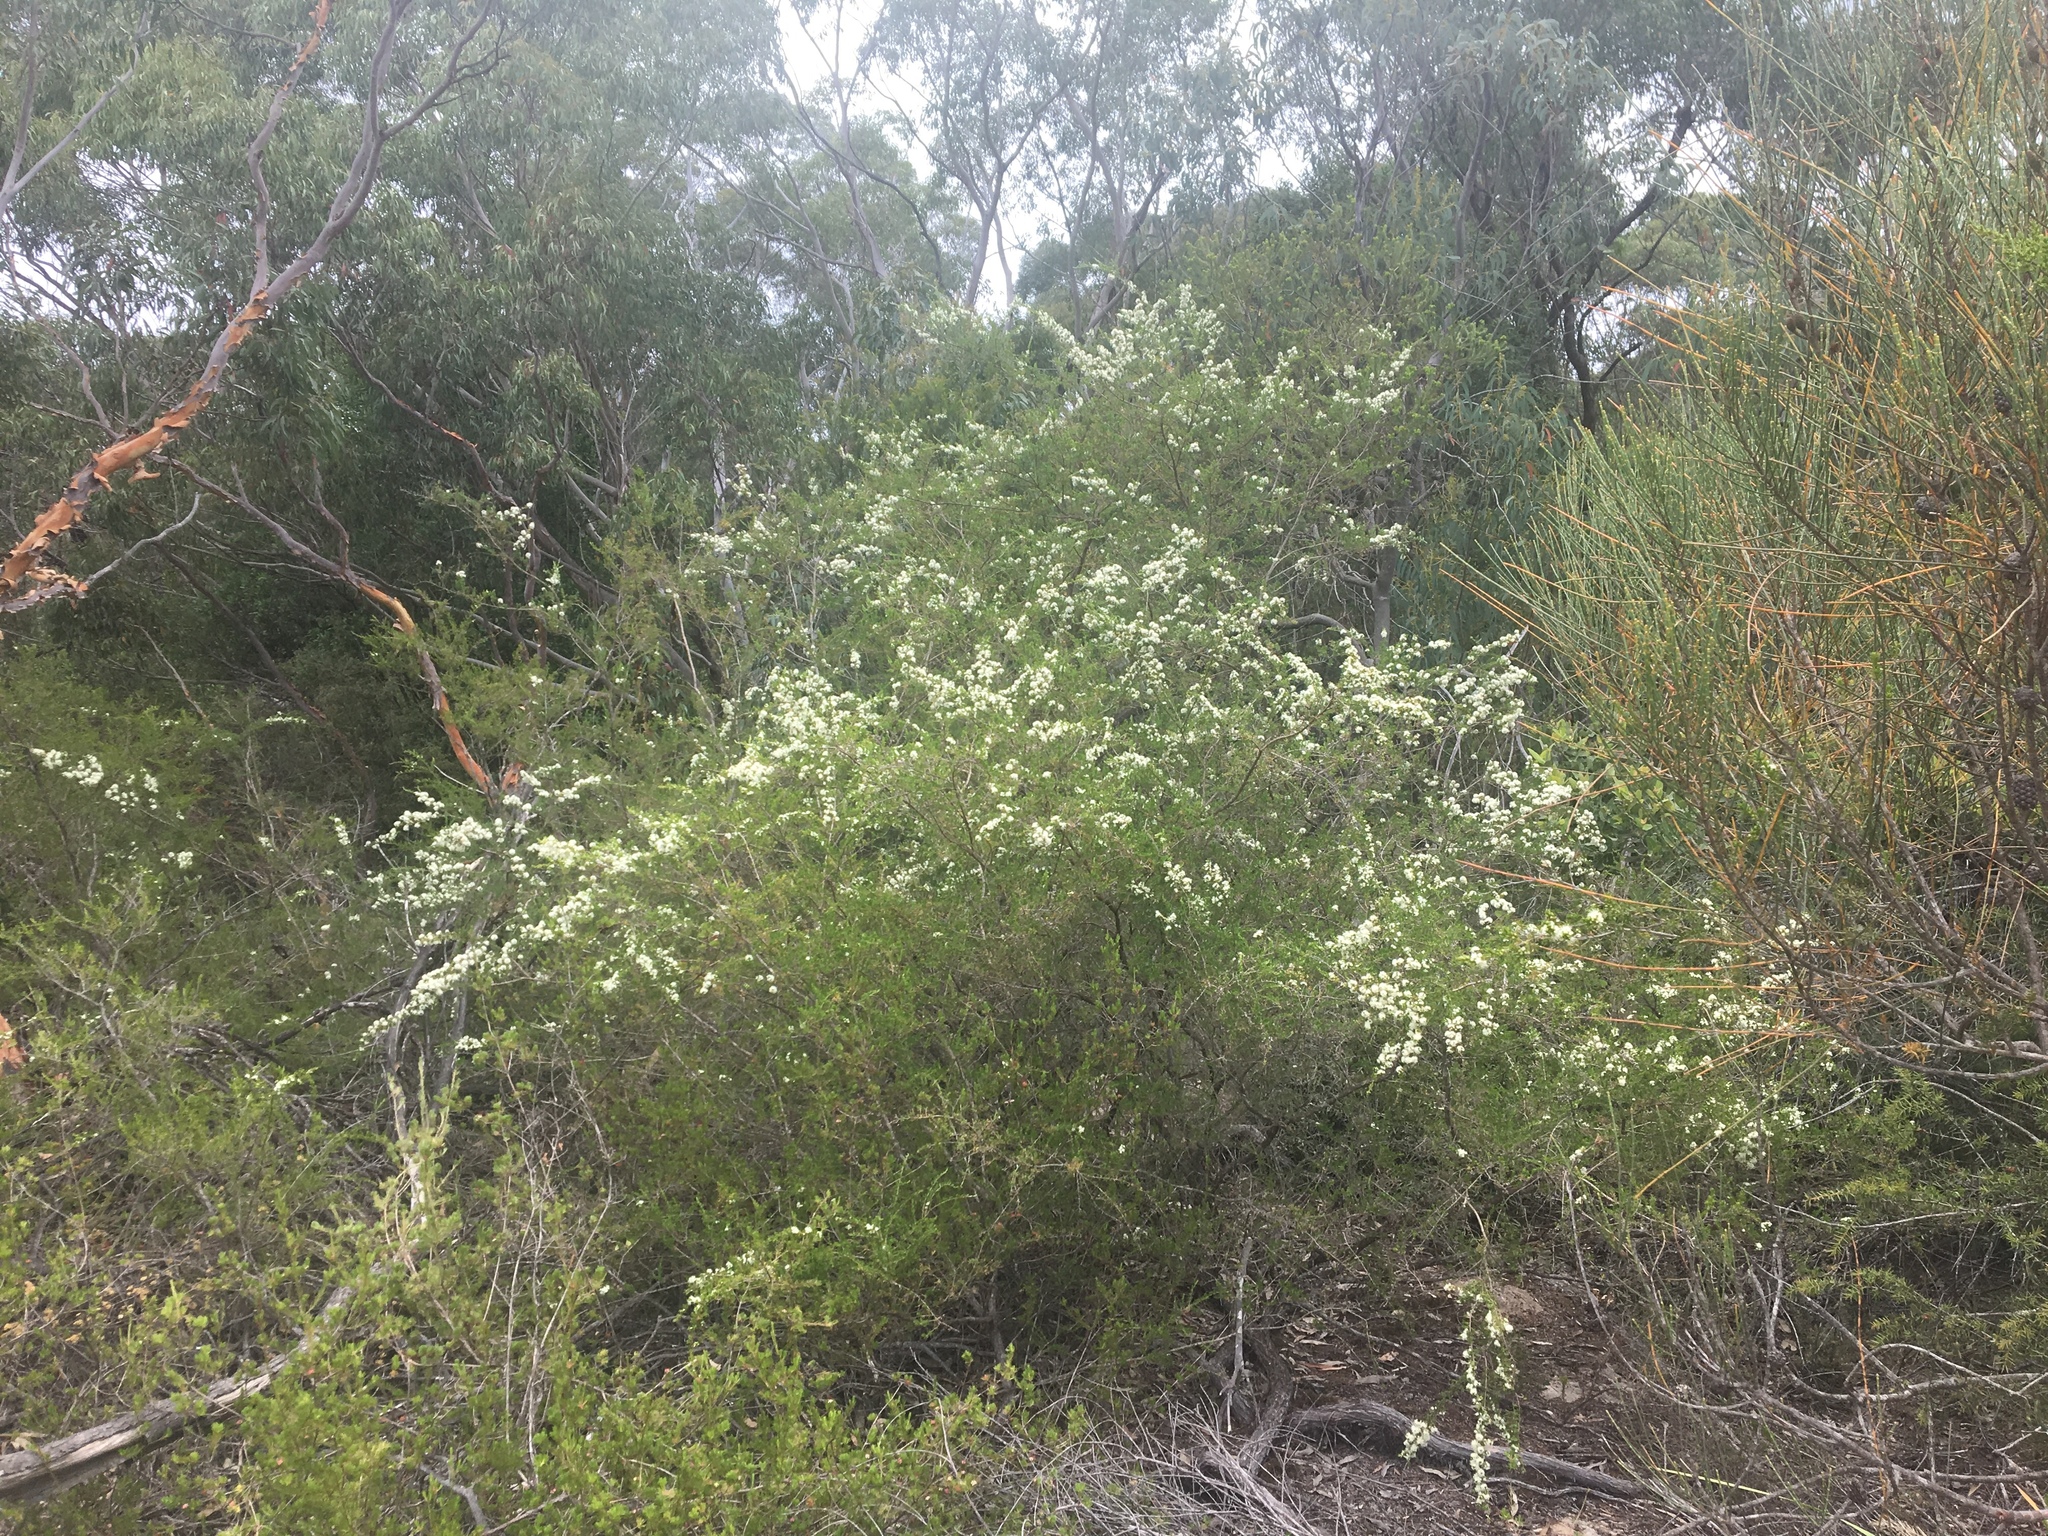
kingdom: Plantae
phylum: Tracheophyta
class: Magnoliopsida
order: Myrtales
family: Myrtaceae
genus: Kunzea
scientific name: Kunzea ambigua
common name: Tickbush
